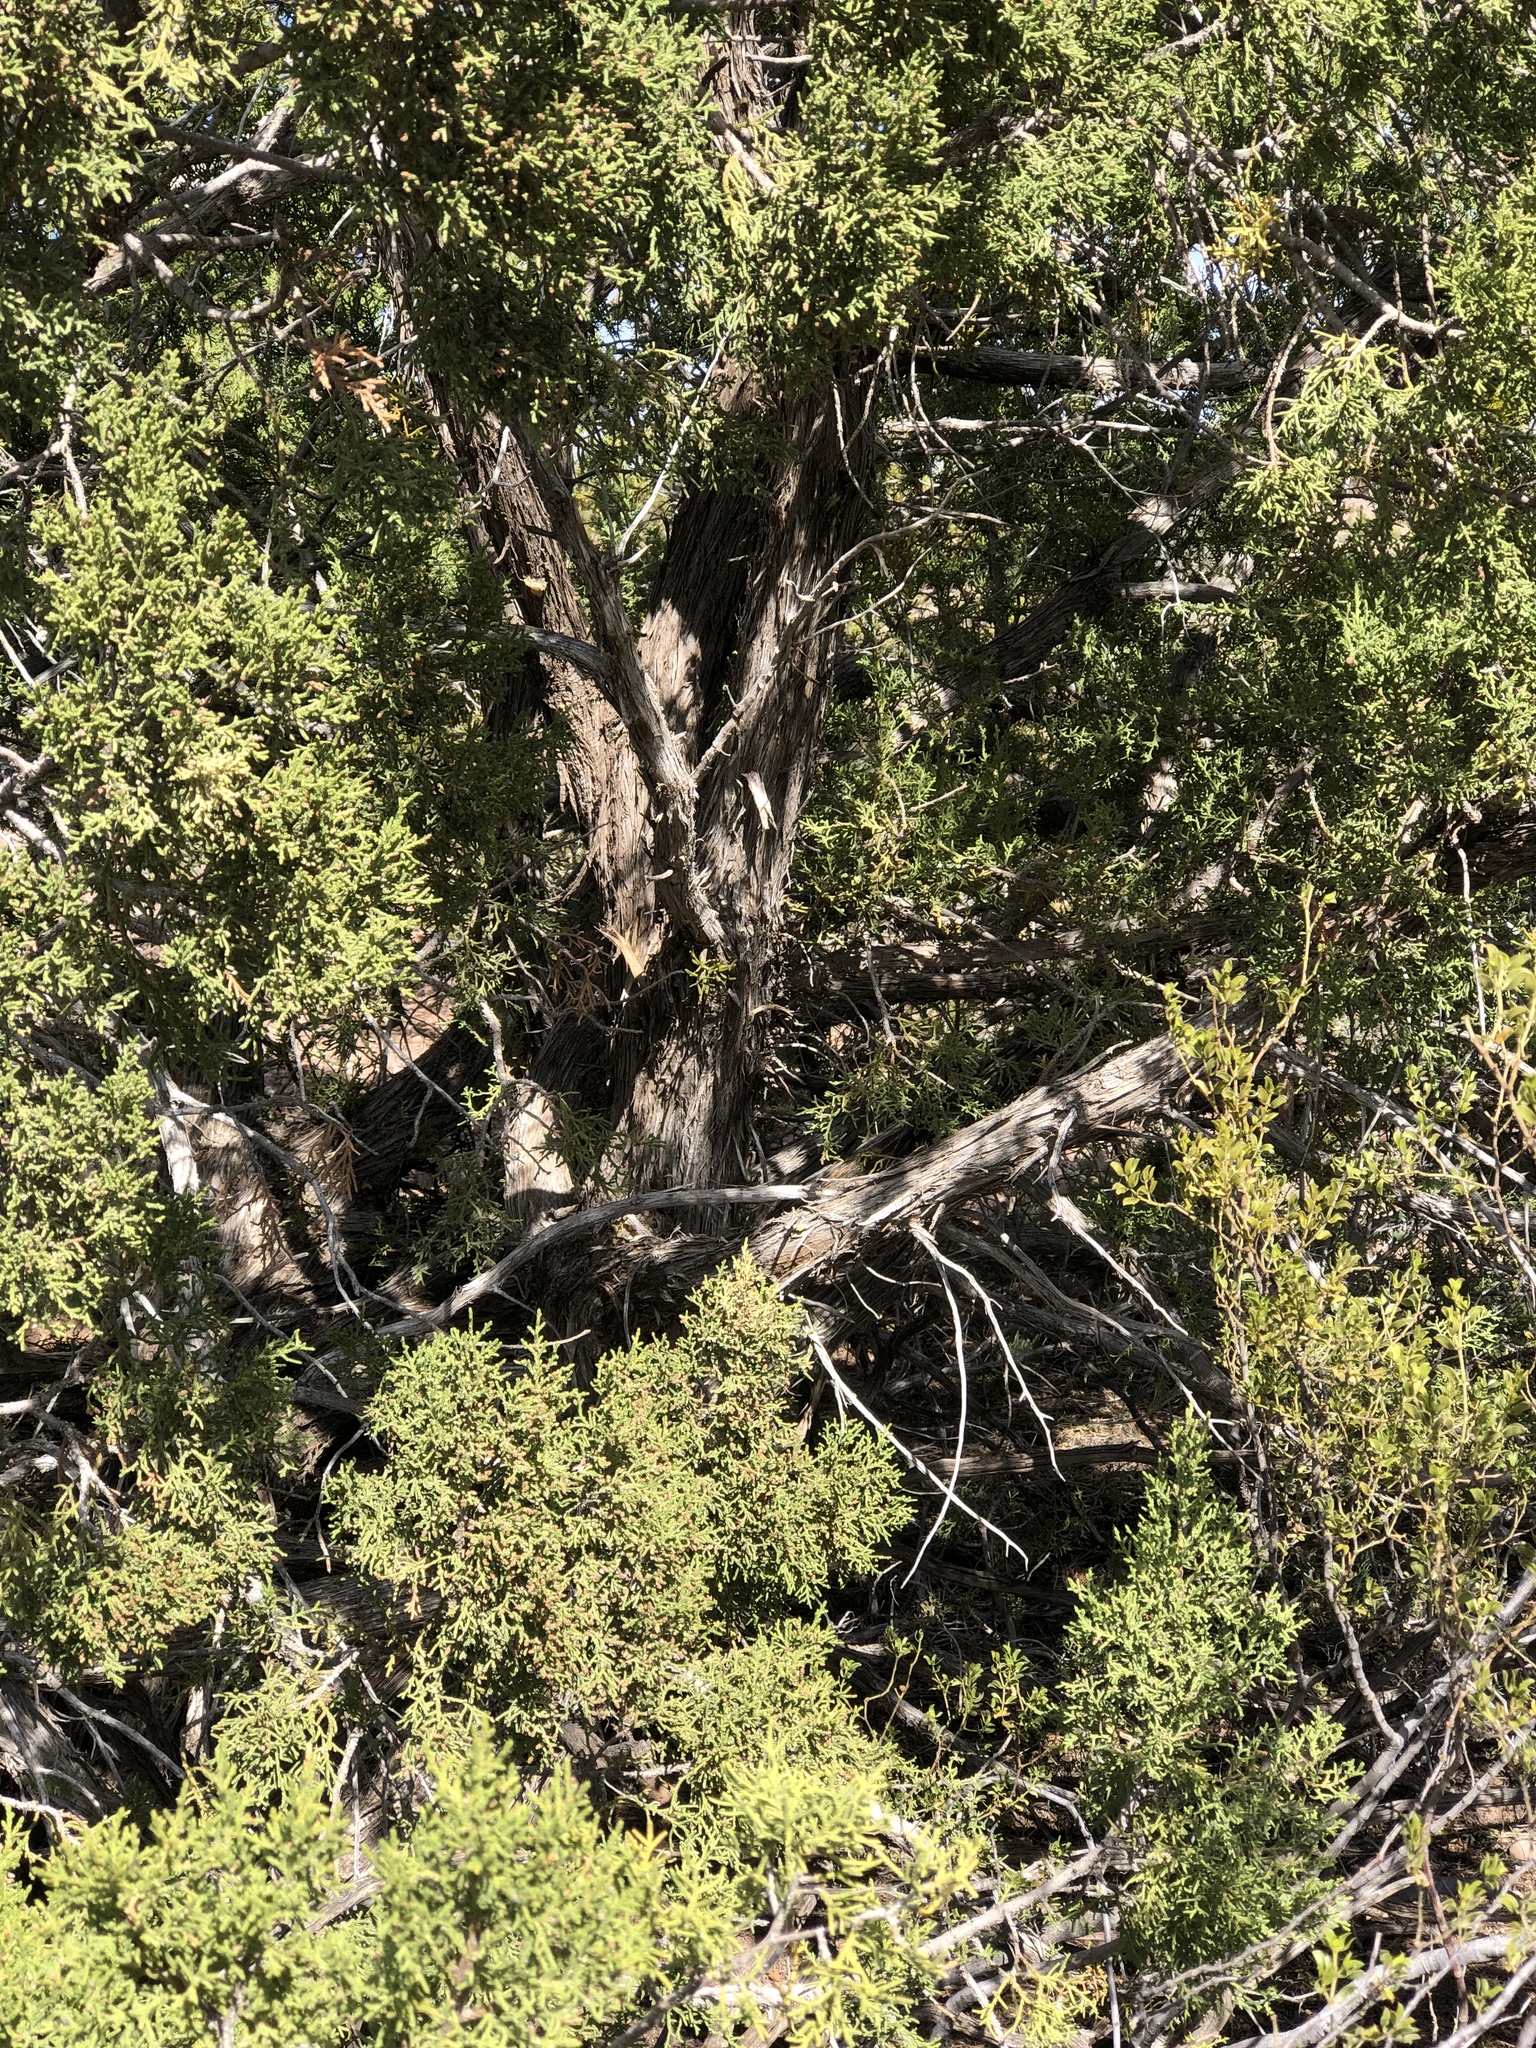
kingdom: Plantae
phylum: Tracheophyta
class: Pinopsida
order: Pinales
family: Pinaceae
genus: Pinus
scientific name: Pinus edulis
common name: Colorado pinyon
